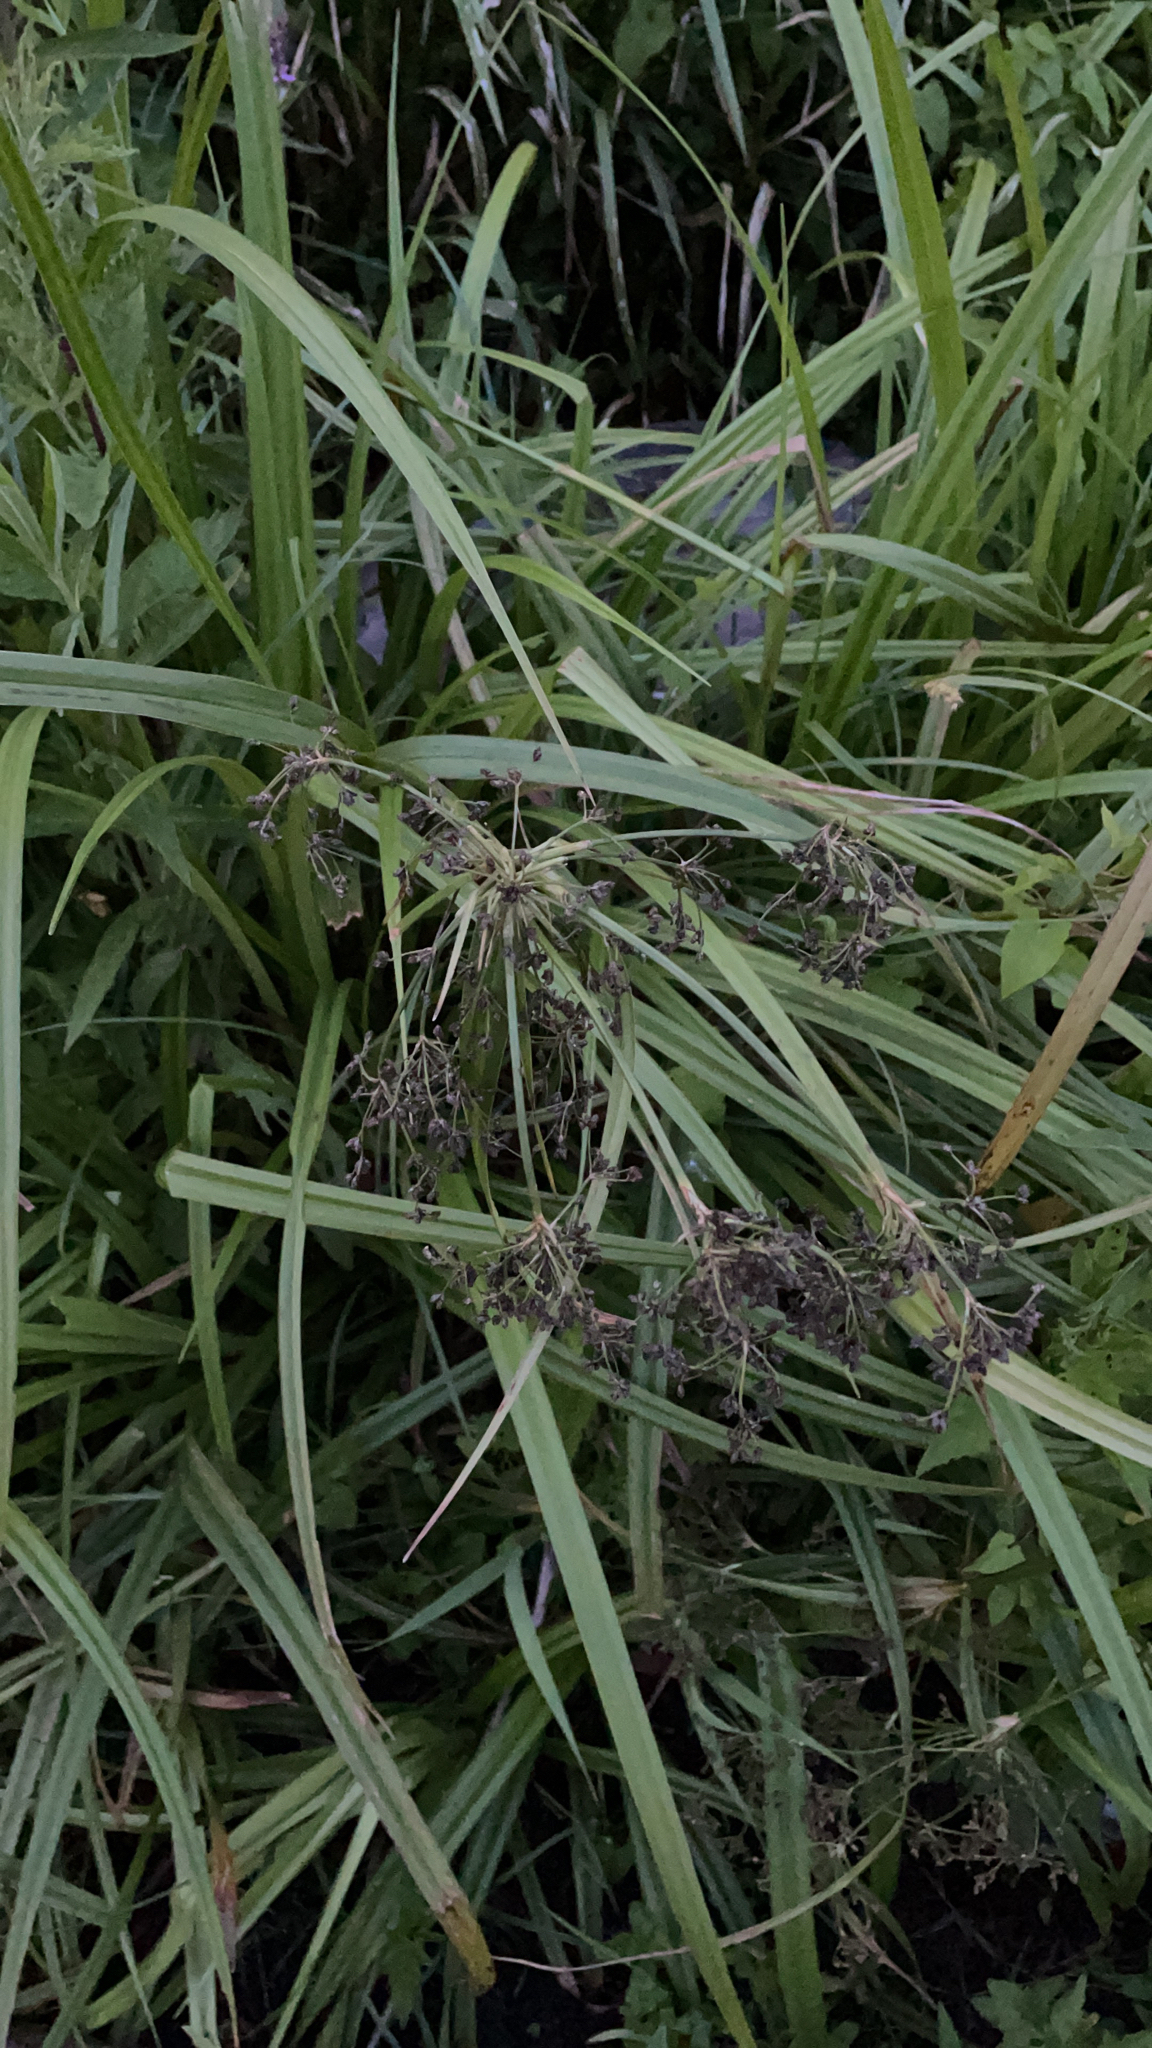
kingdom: Plantae
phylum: Tracheophyta
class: Liliopsida
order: Poales
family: Cyperaceae
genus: Scirpus
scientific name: Scirpus sylvaticus
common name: Wood club-rush
